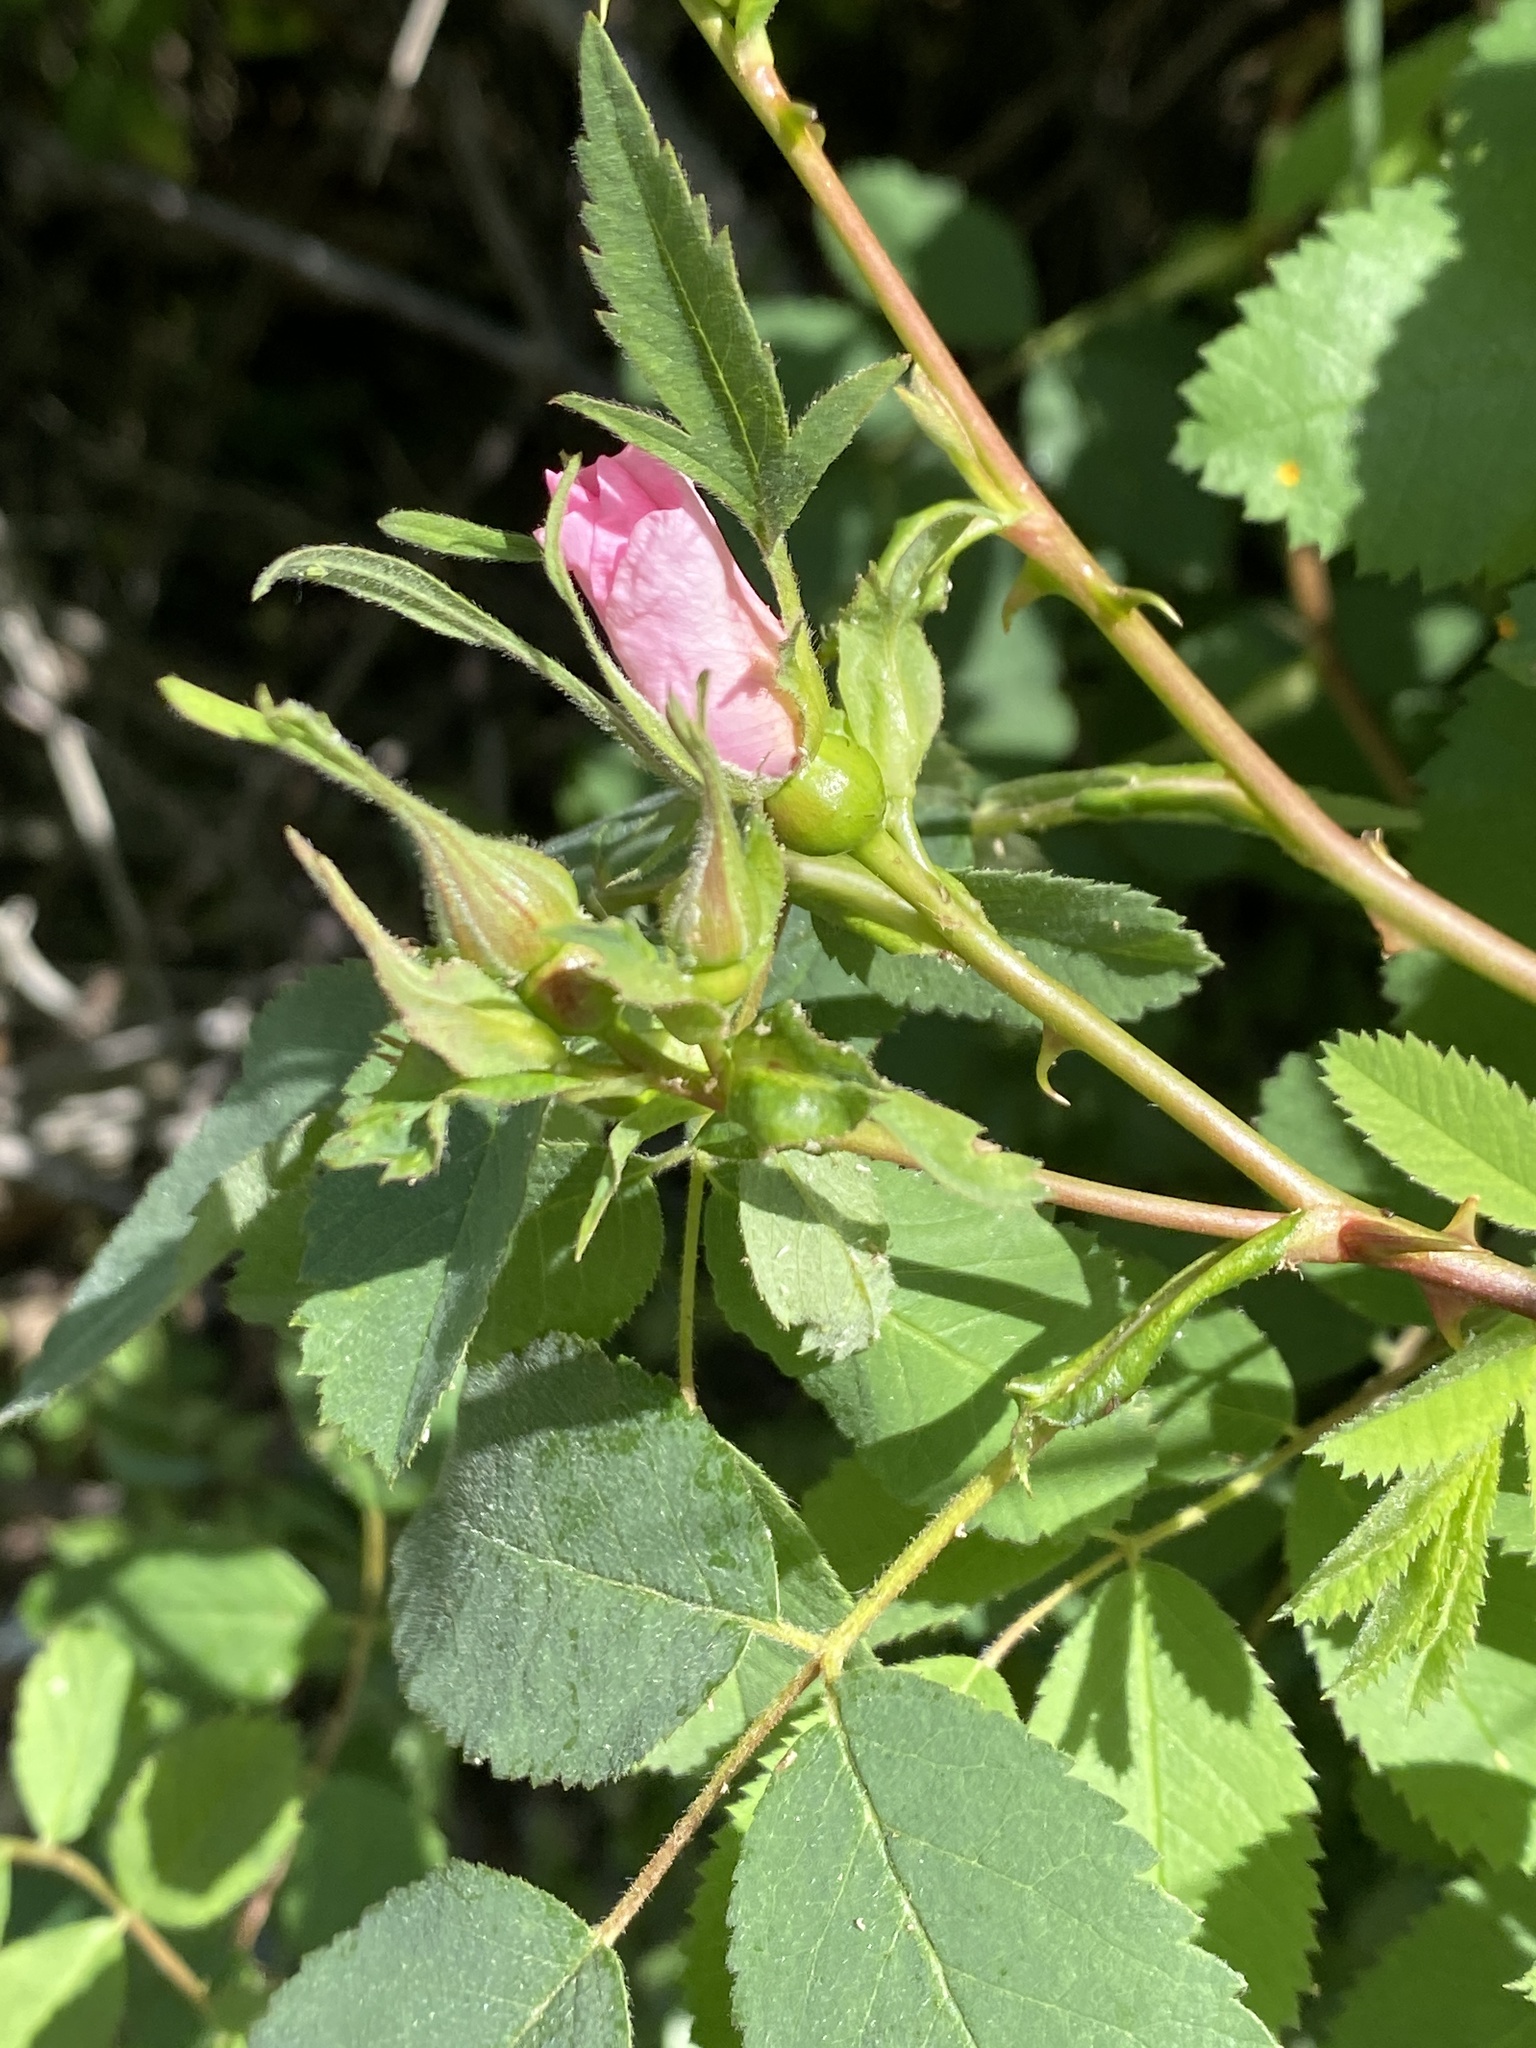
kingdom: Plantae
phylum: Tracheophyta
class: Magnoliopsida
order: Rosales
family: Rosaceae
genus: Rosa
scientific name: Rosa californica
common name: California rose
